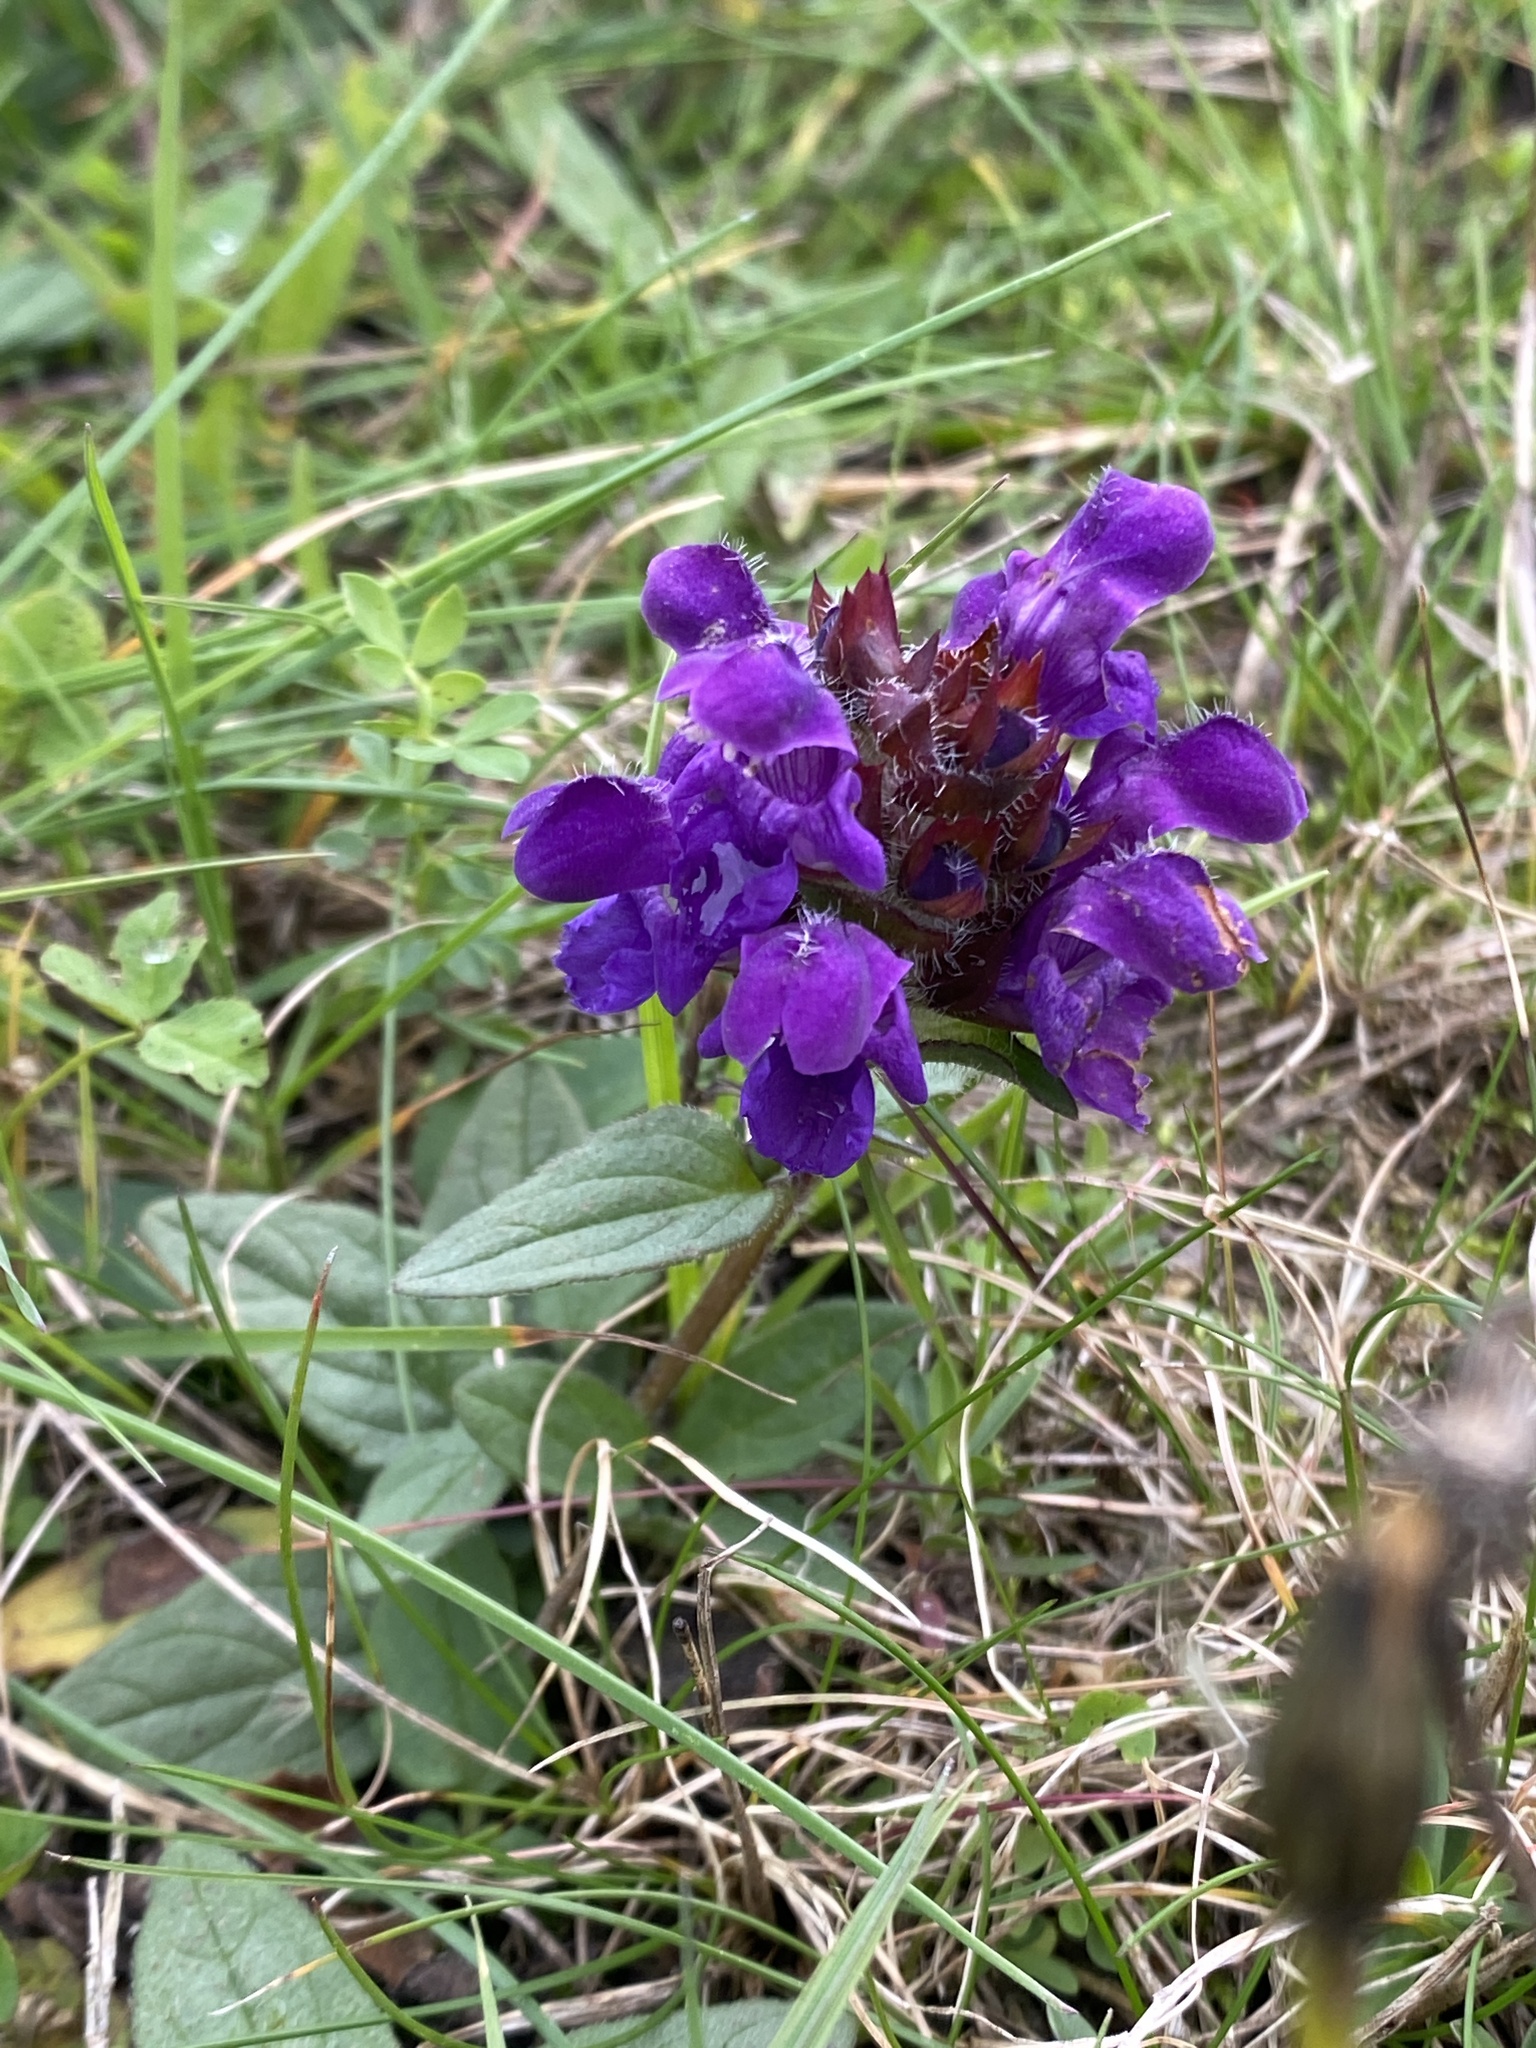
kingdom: Plantae
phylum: Tracheophyta
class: Magnoliopsida
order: Lamiales
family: Lamiaceae
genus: Prunella
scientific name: Prunella vulgaris
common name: Heal-all
